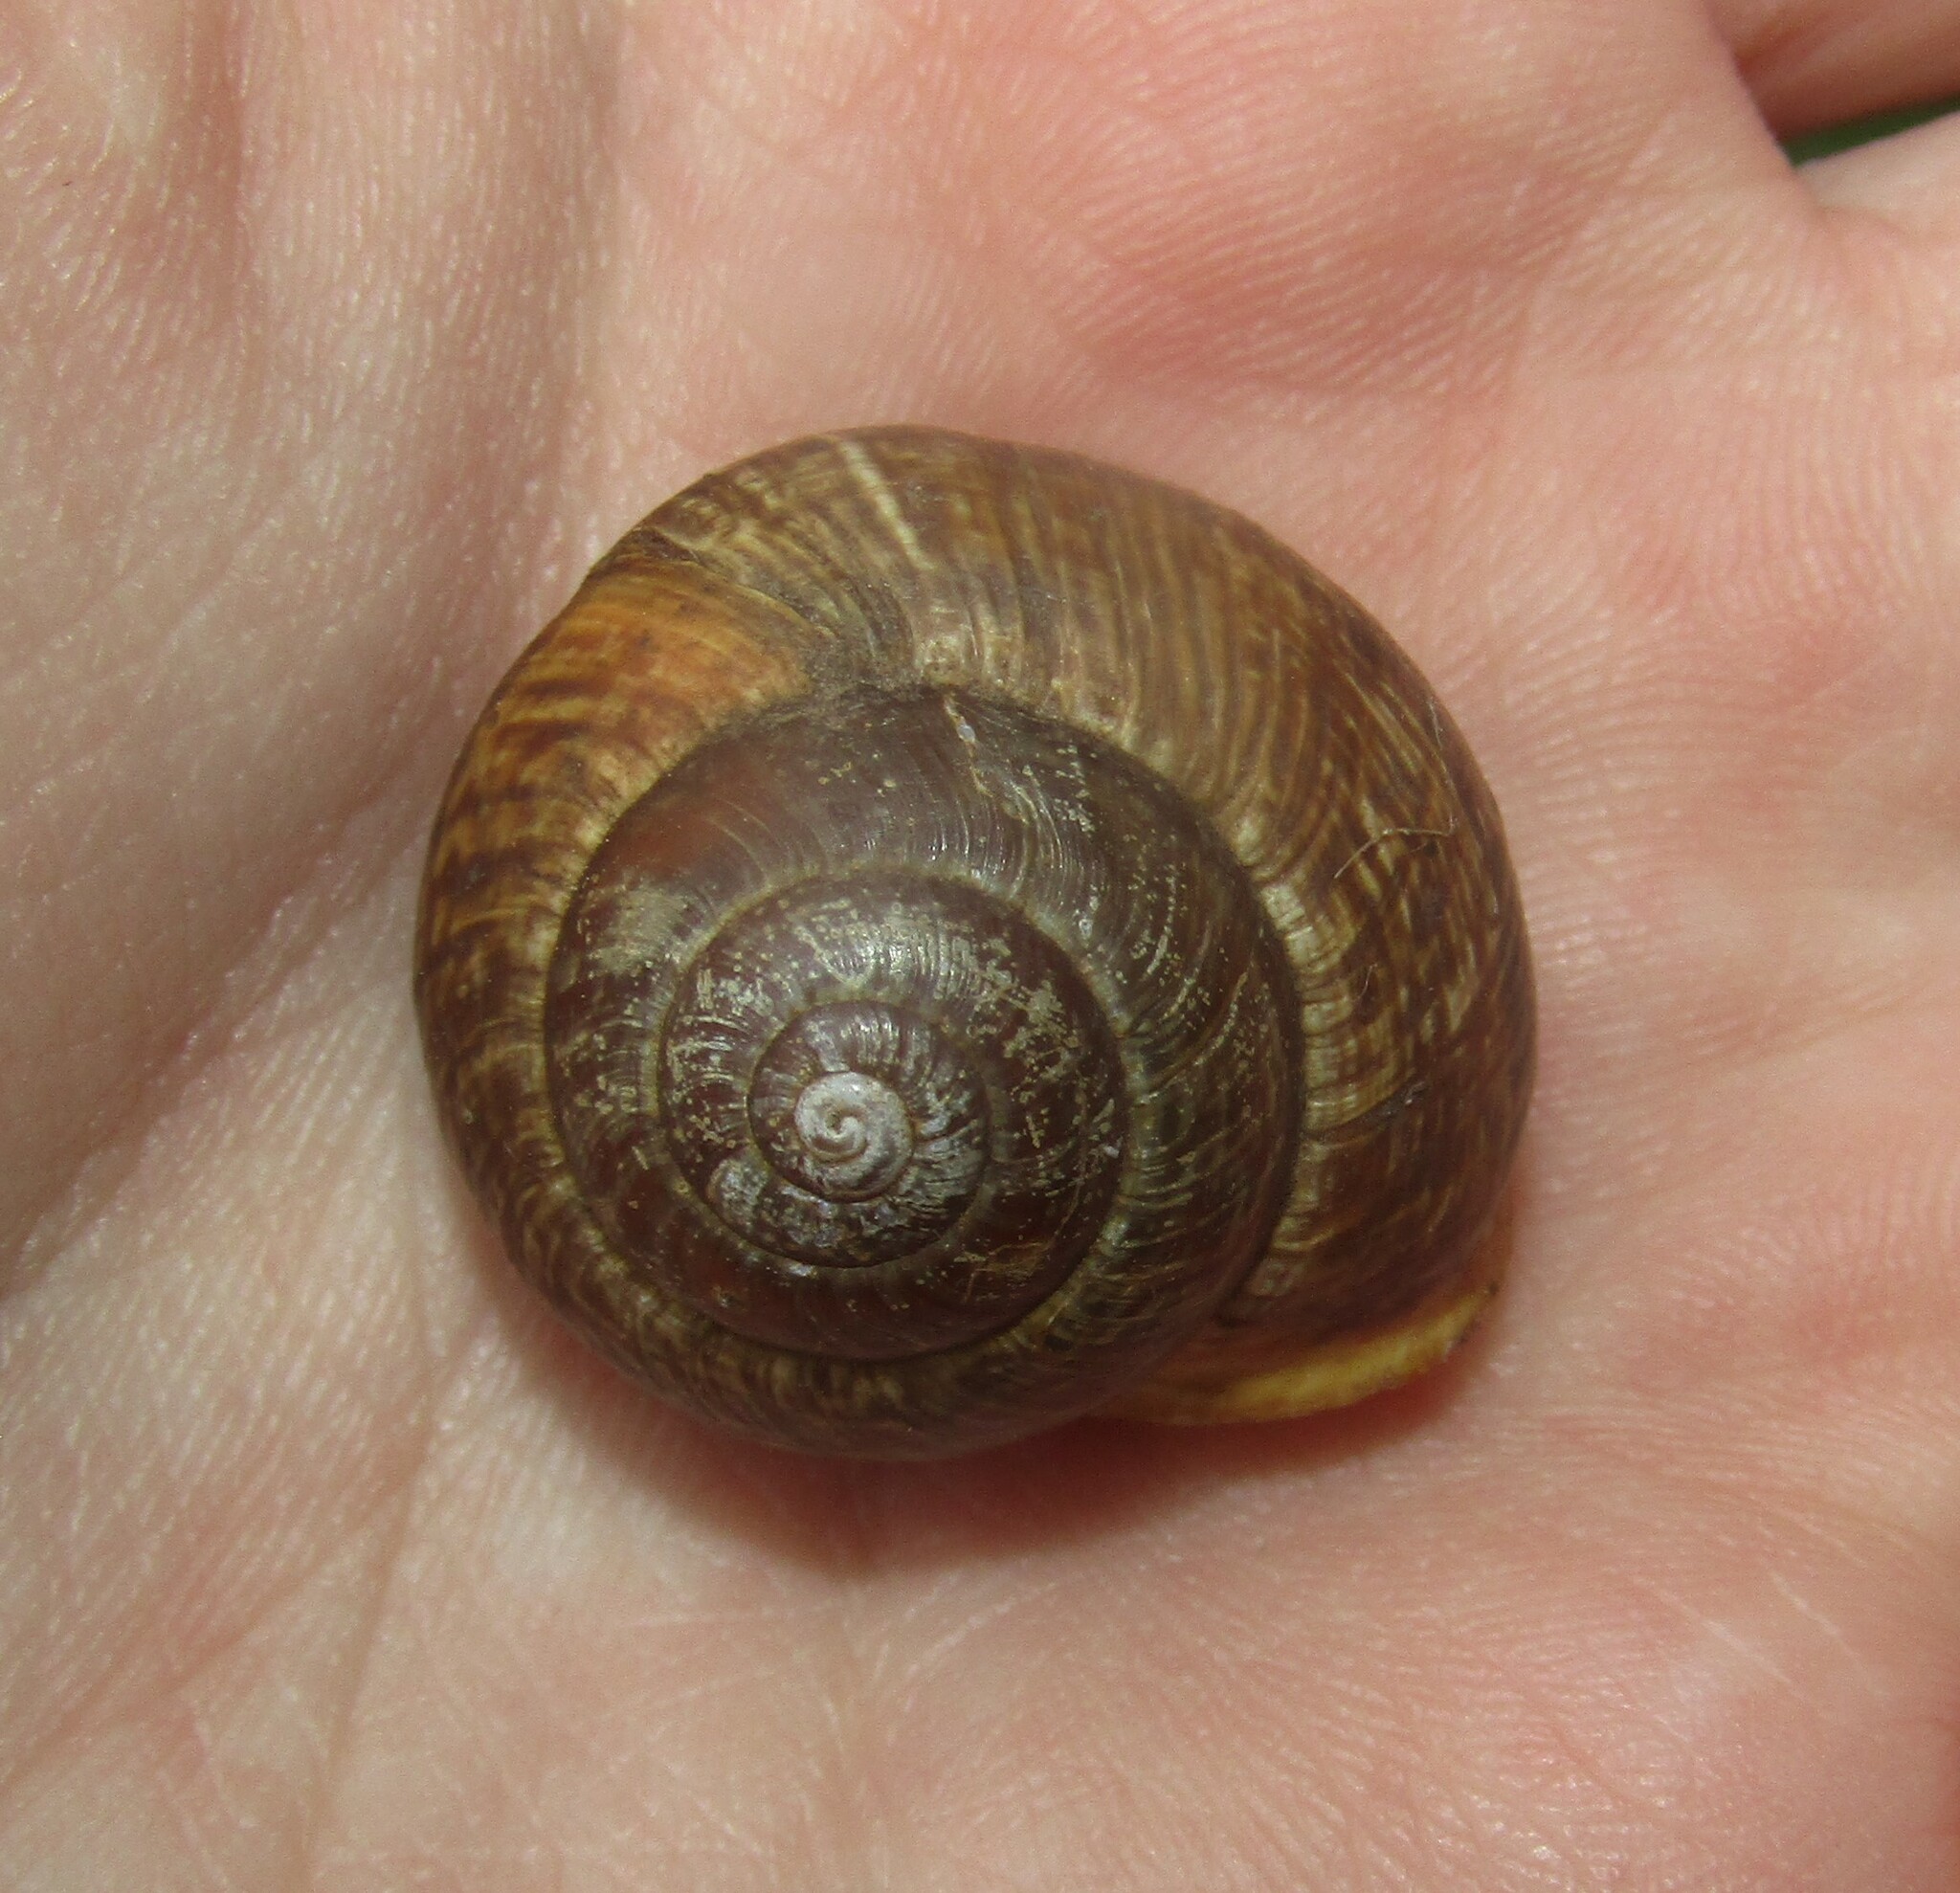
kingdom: Animalia
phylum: Mollusca
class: Gastropoda
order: Stylommatophora
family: Helicidae
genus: Arianta
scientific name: Arianta arbustorum
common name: Copse snail
